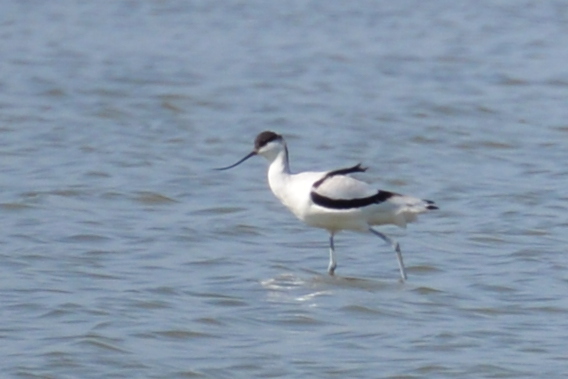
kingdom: Animalia
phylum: Chordata
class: Aves
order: Charadriiformes
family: Recurvirostridae
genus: Recurvirostra
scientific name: Recurvirostra avosetta
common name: Pied avocet
